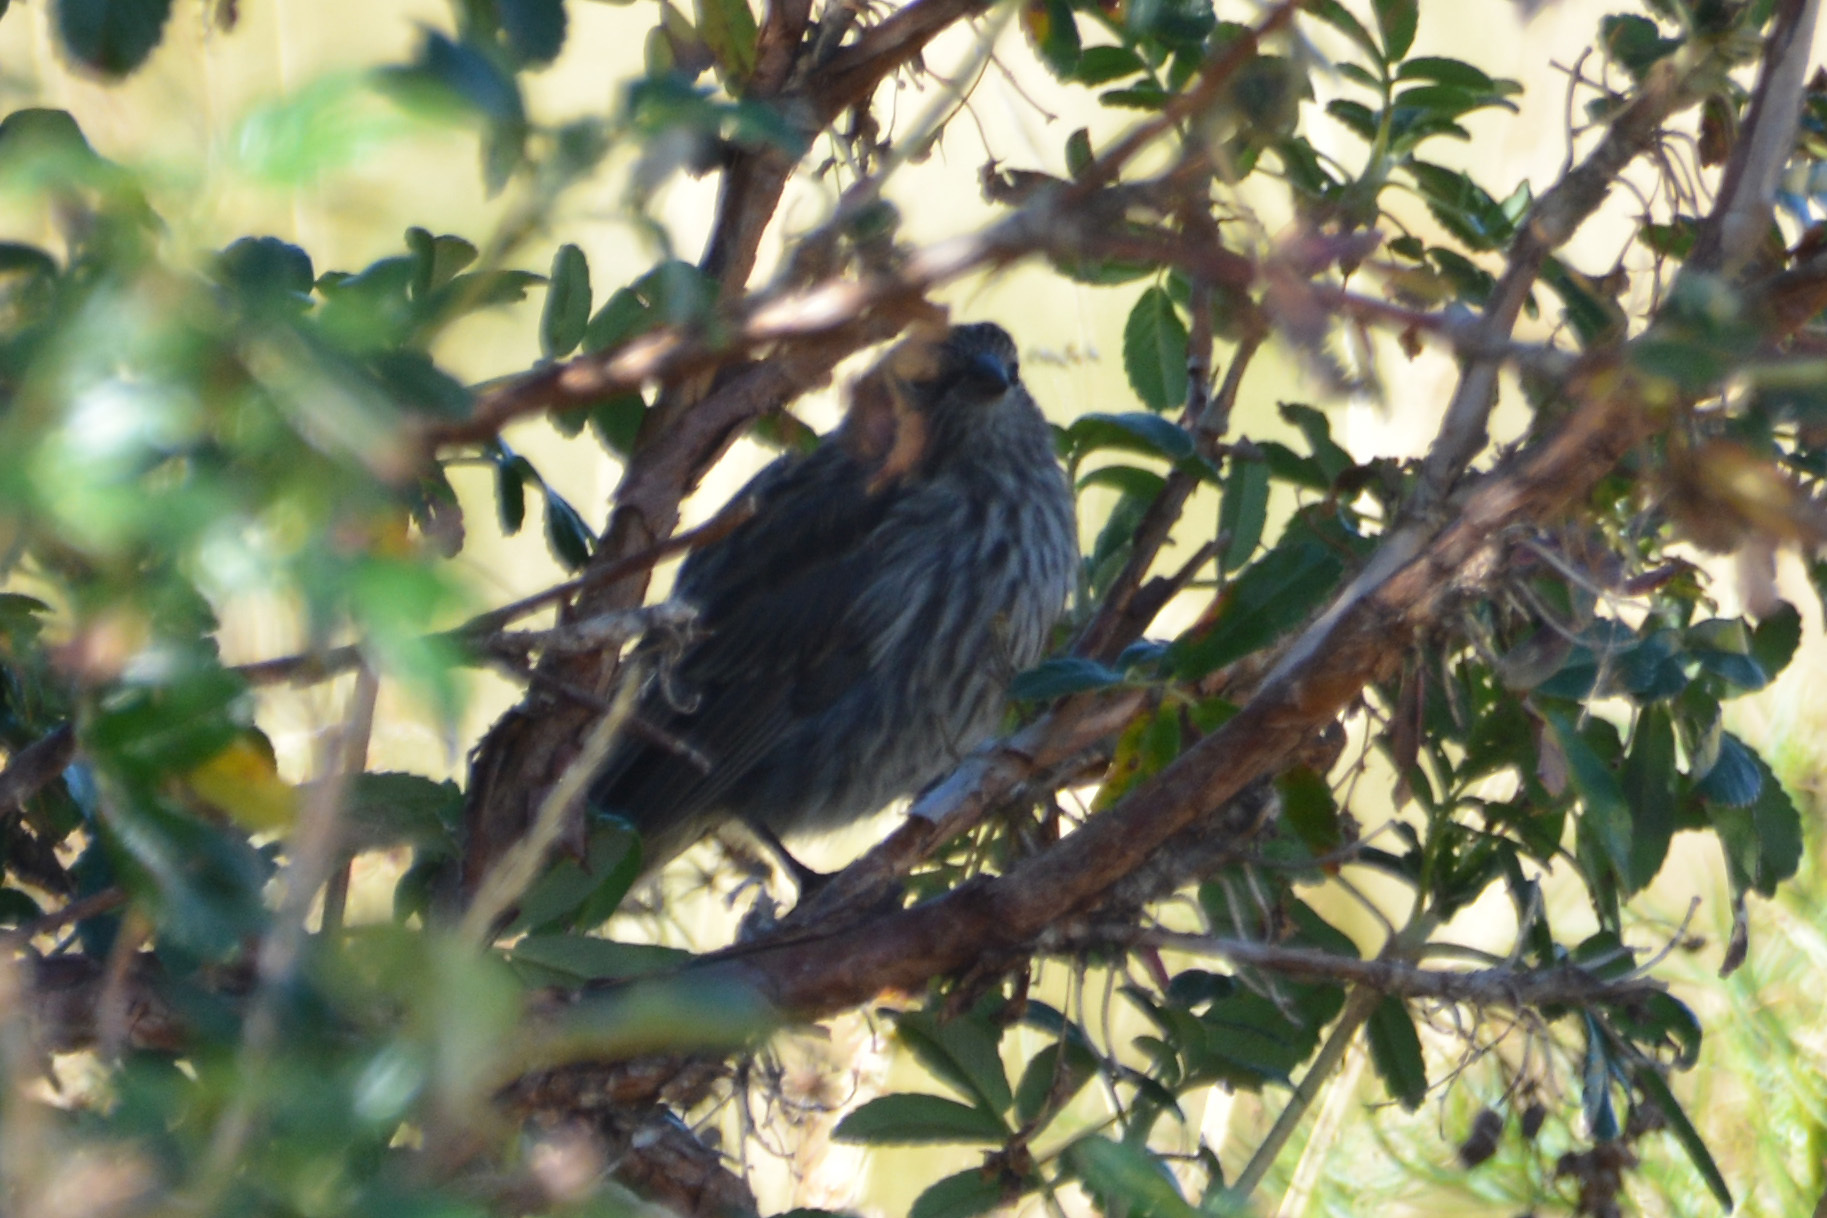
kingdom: Animalia
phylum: Chordata
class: Aves
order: Passeriformes
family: Thraupidae
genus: Geospizopsis
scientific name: Geospizopsis unicolor
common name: Plumbeous sierra-finch
